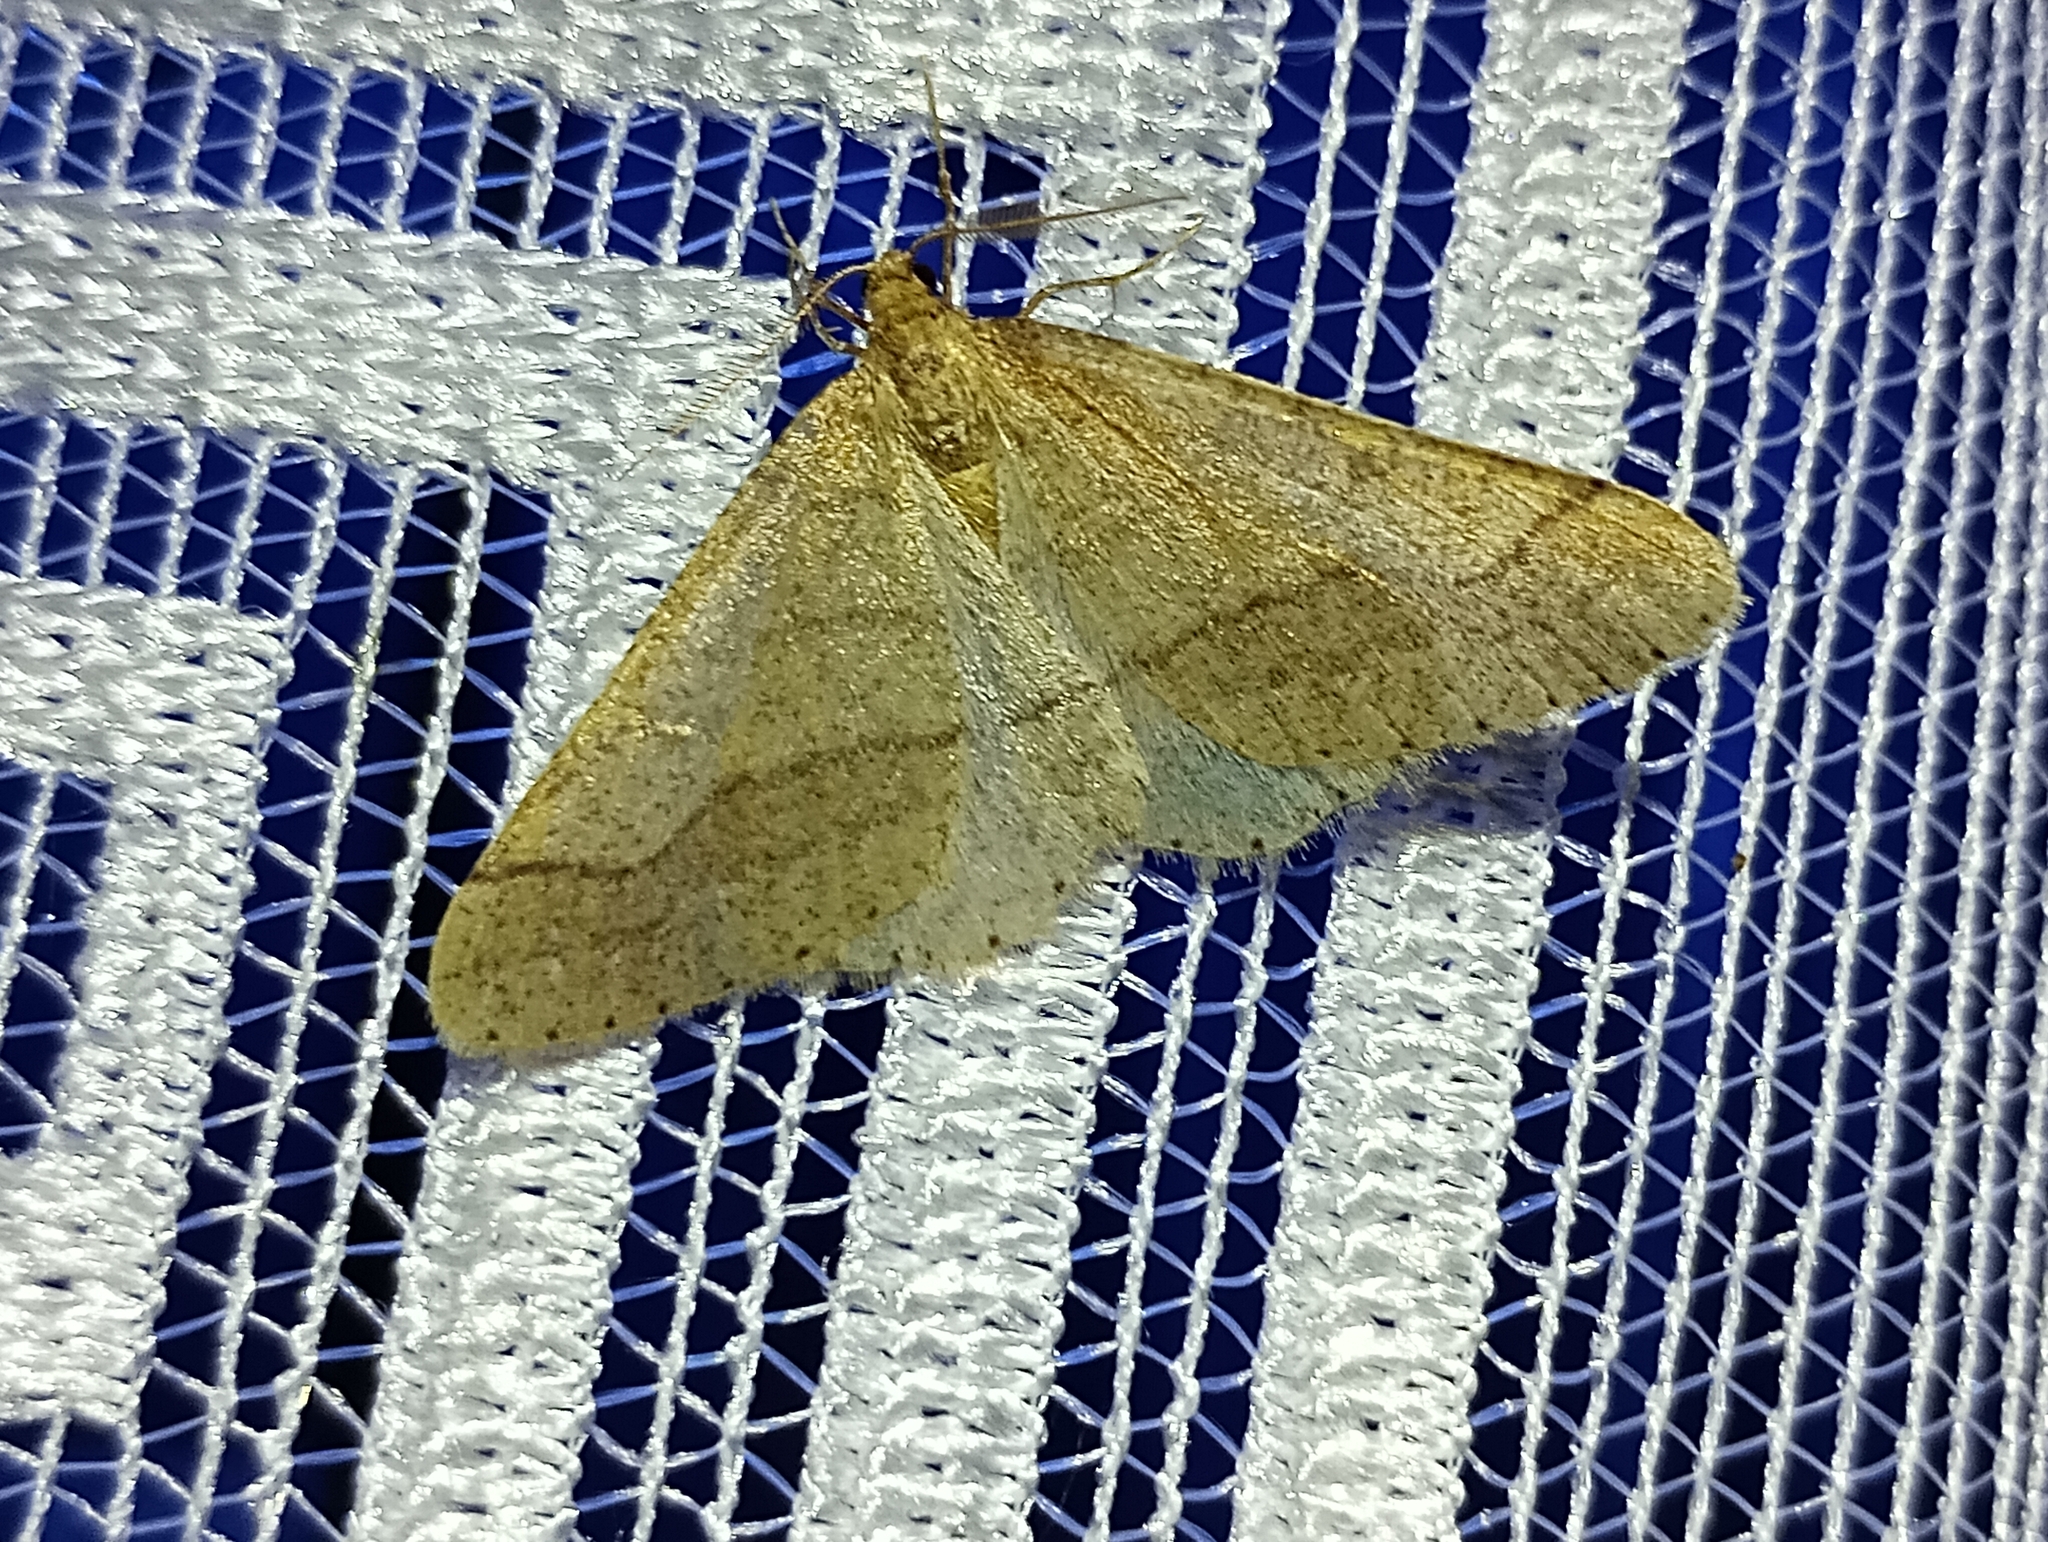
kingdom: Animalia
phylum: Arthropoda
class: Insecta
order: Lepidoptera
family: Geometridae
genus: Agriopis
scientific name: Agriopis marginaria
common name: Dotted border
